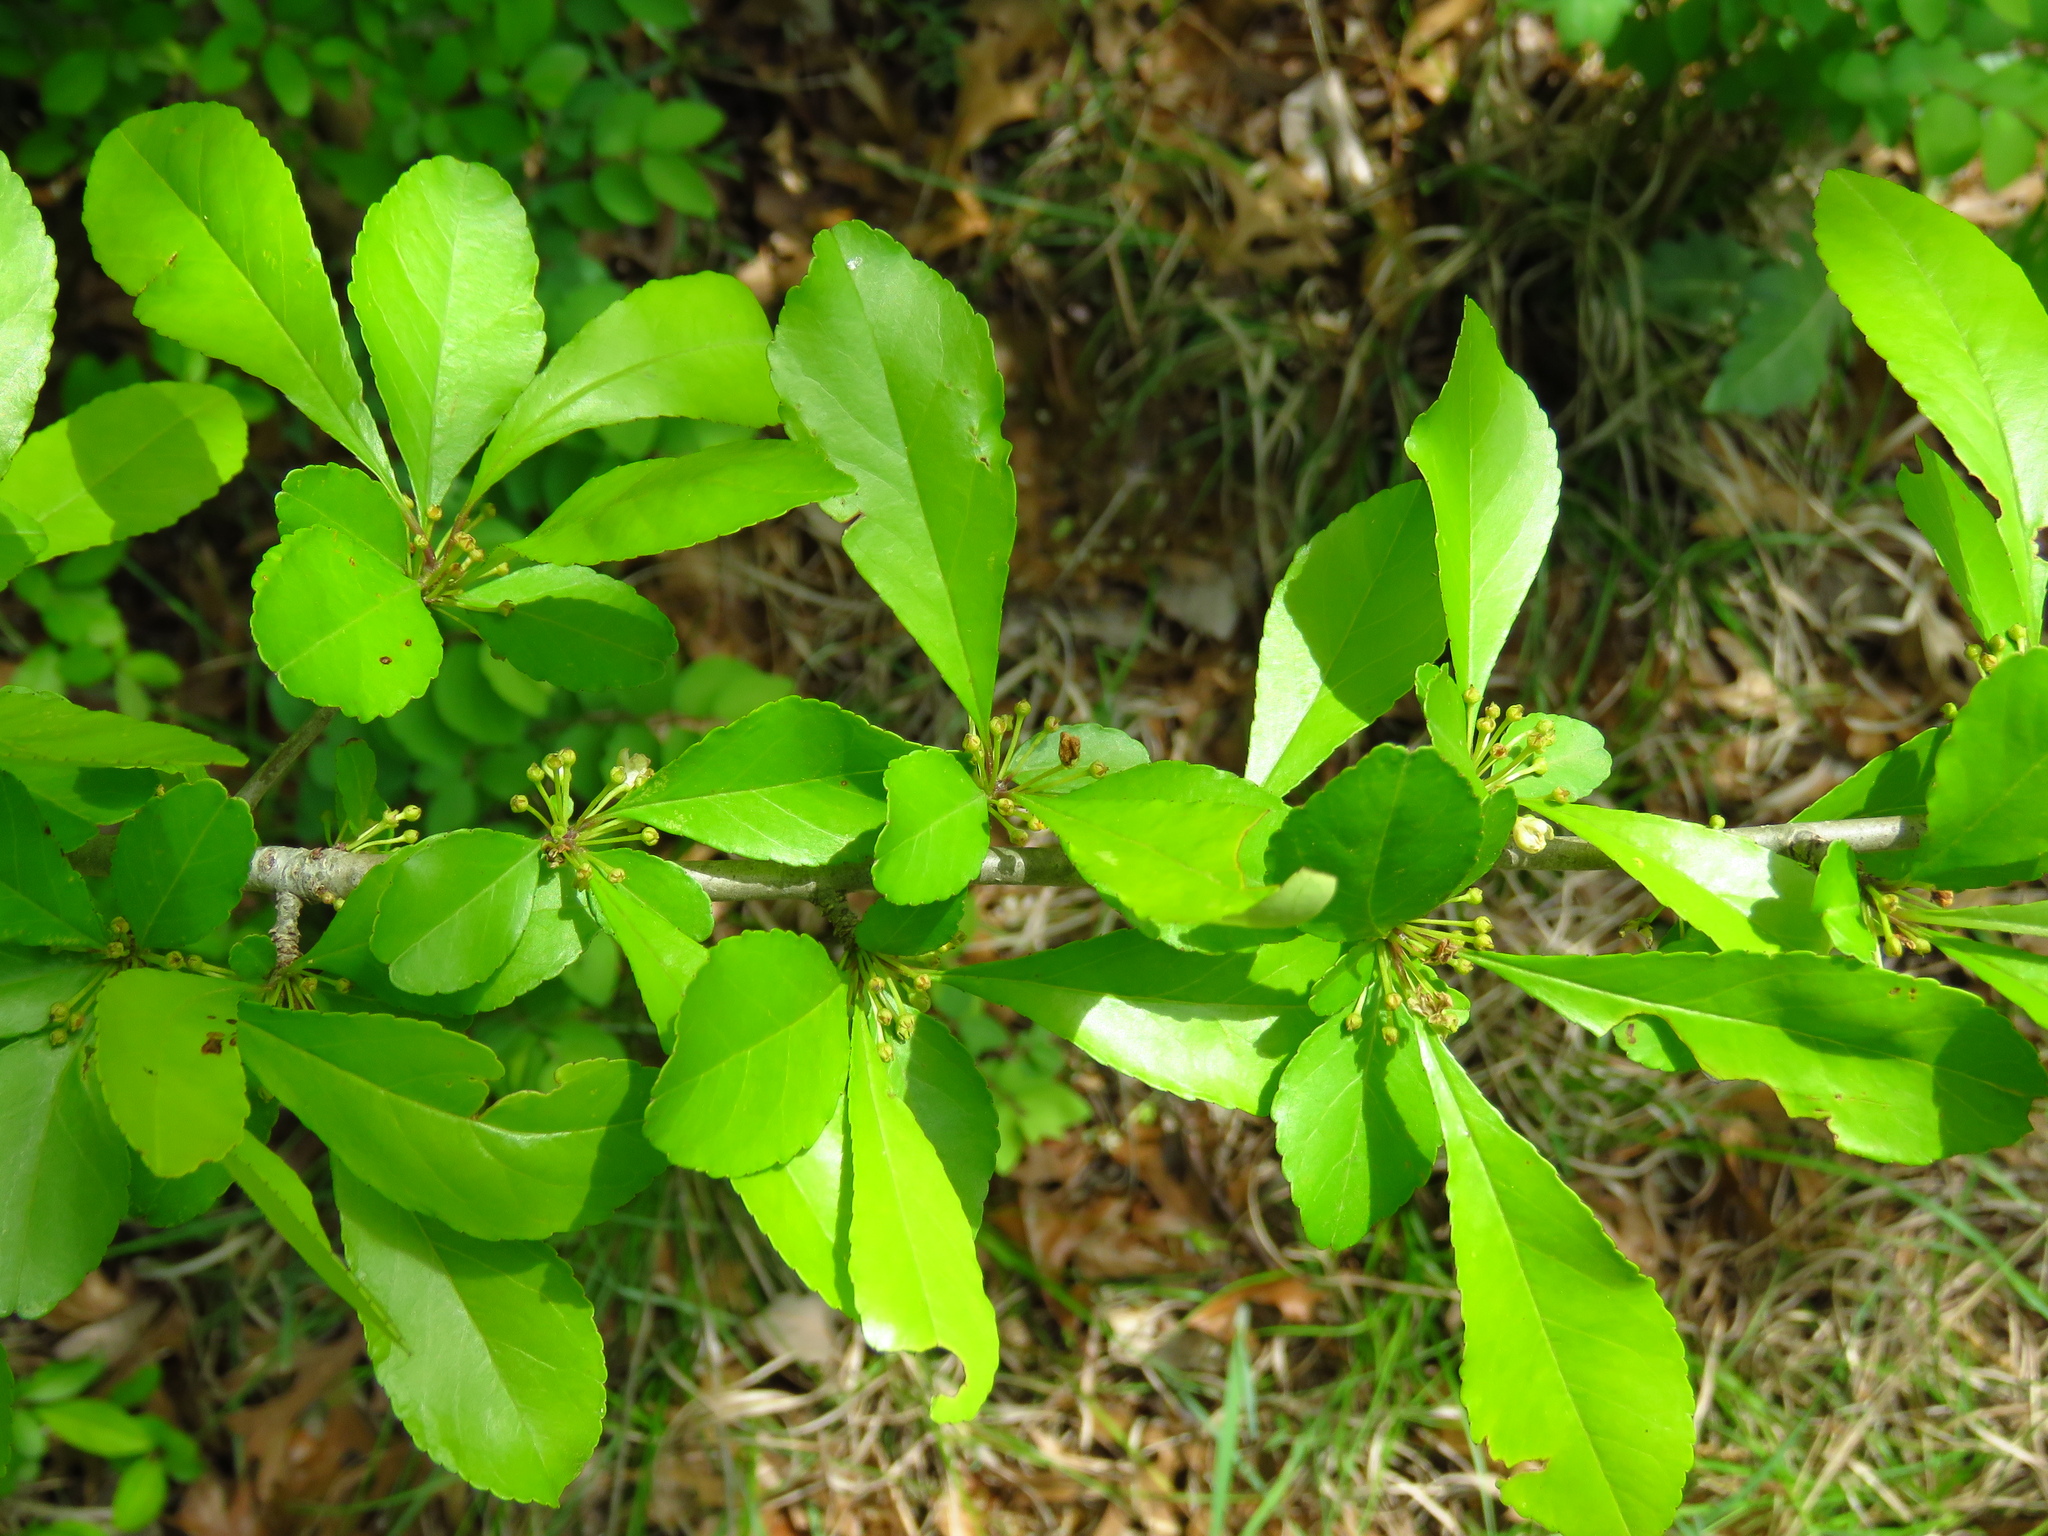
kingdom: Plantae
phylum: Tracheophyta
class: Magnoliopsida
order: Aquifoliales
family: Aquifoliaceae
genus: Ilex
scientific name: Ilex decidua
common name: Possum-haw
